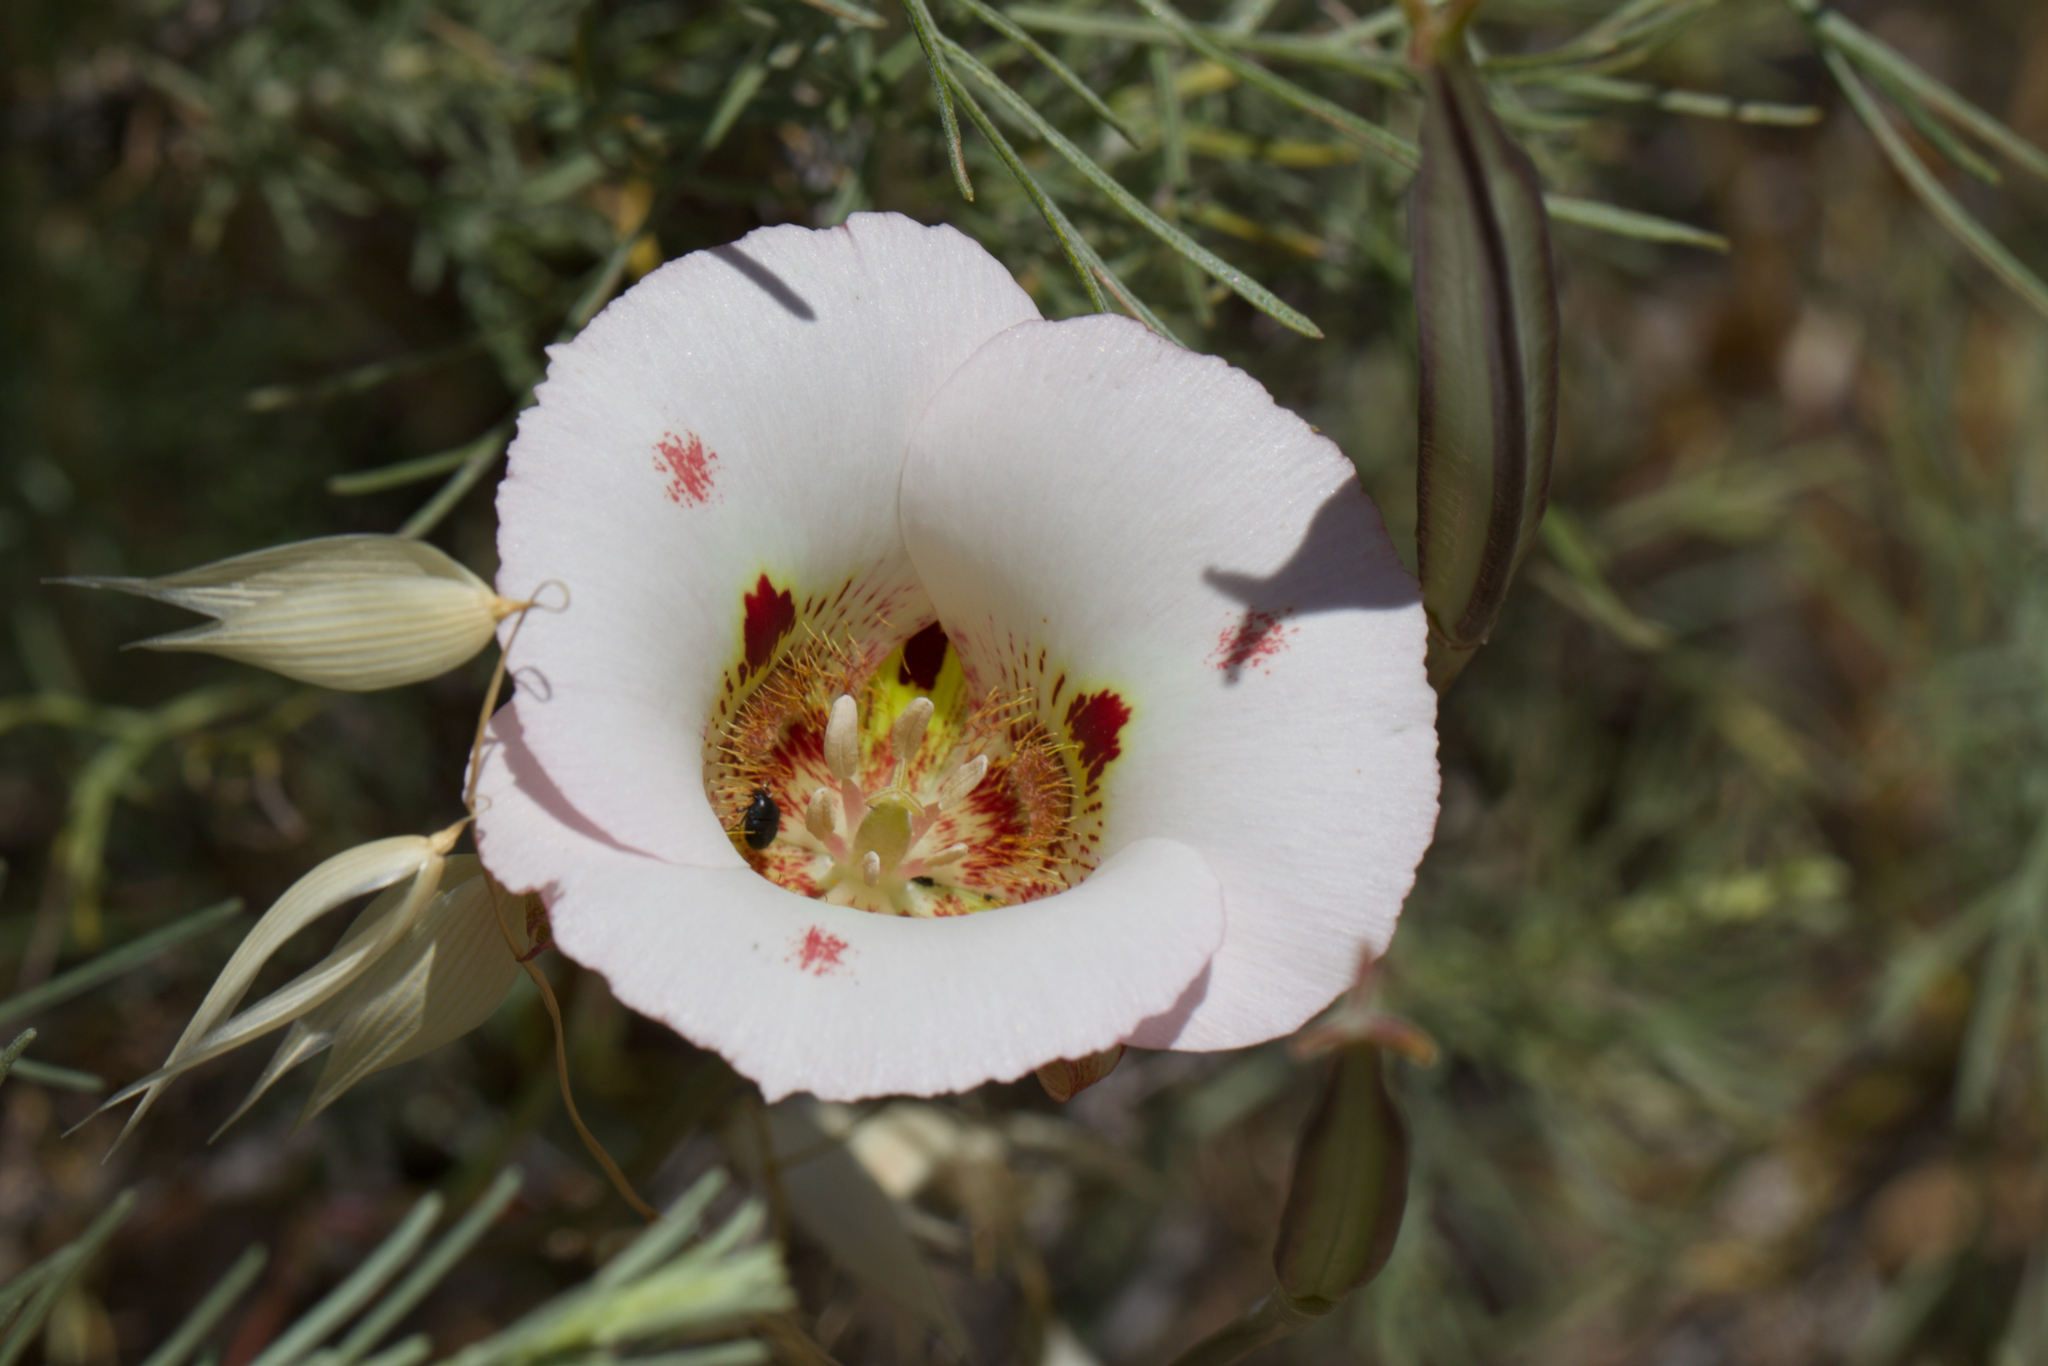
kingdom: Plantae
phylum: Tracheophyta
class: Liliopsida
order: Liliales
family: Liliaceae
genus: Calochortus
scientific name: Calochortus venustus
